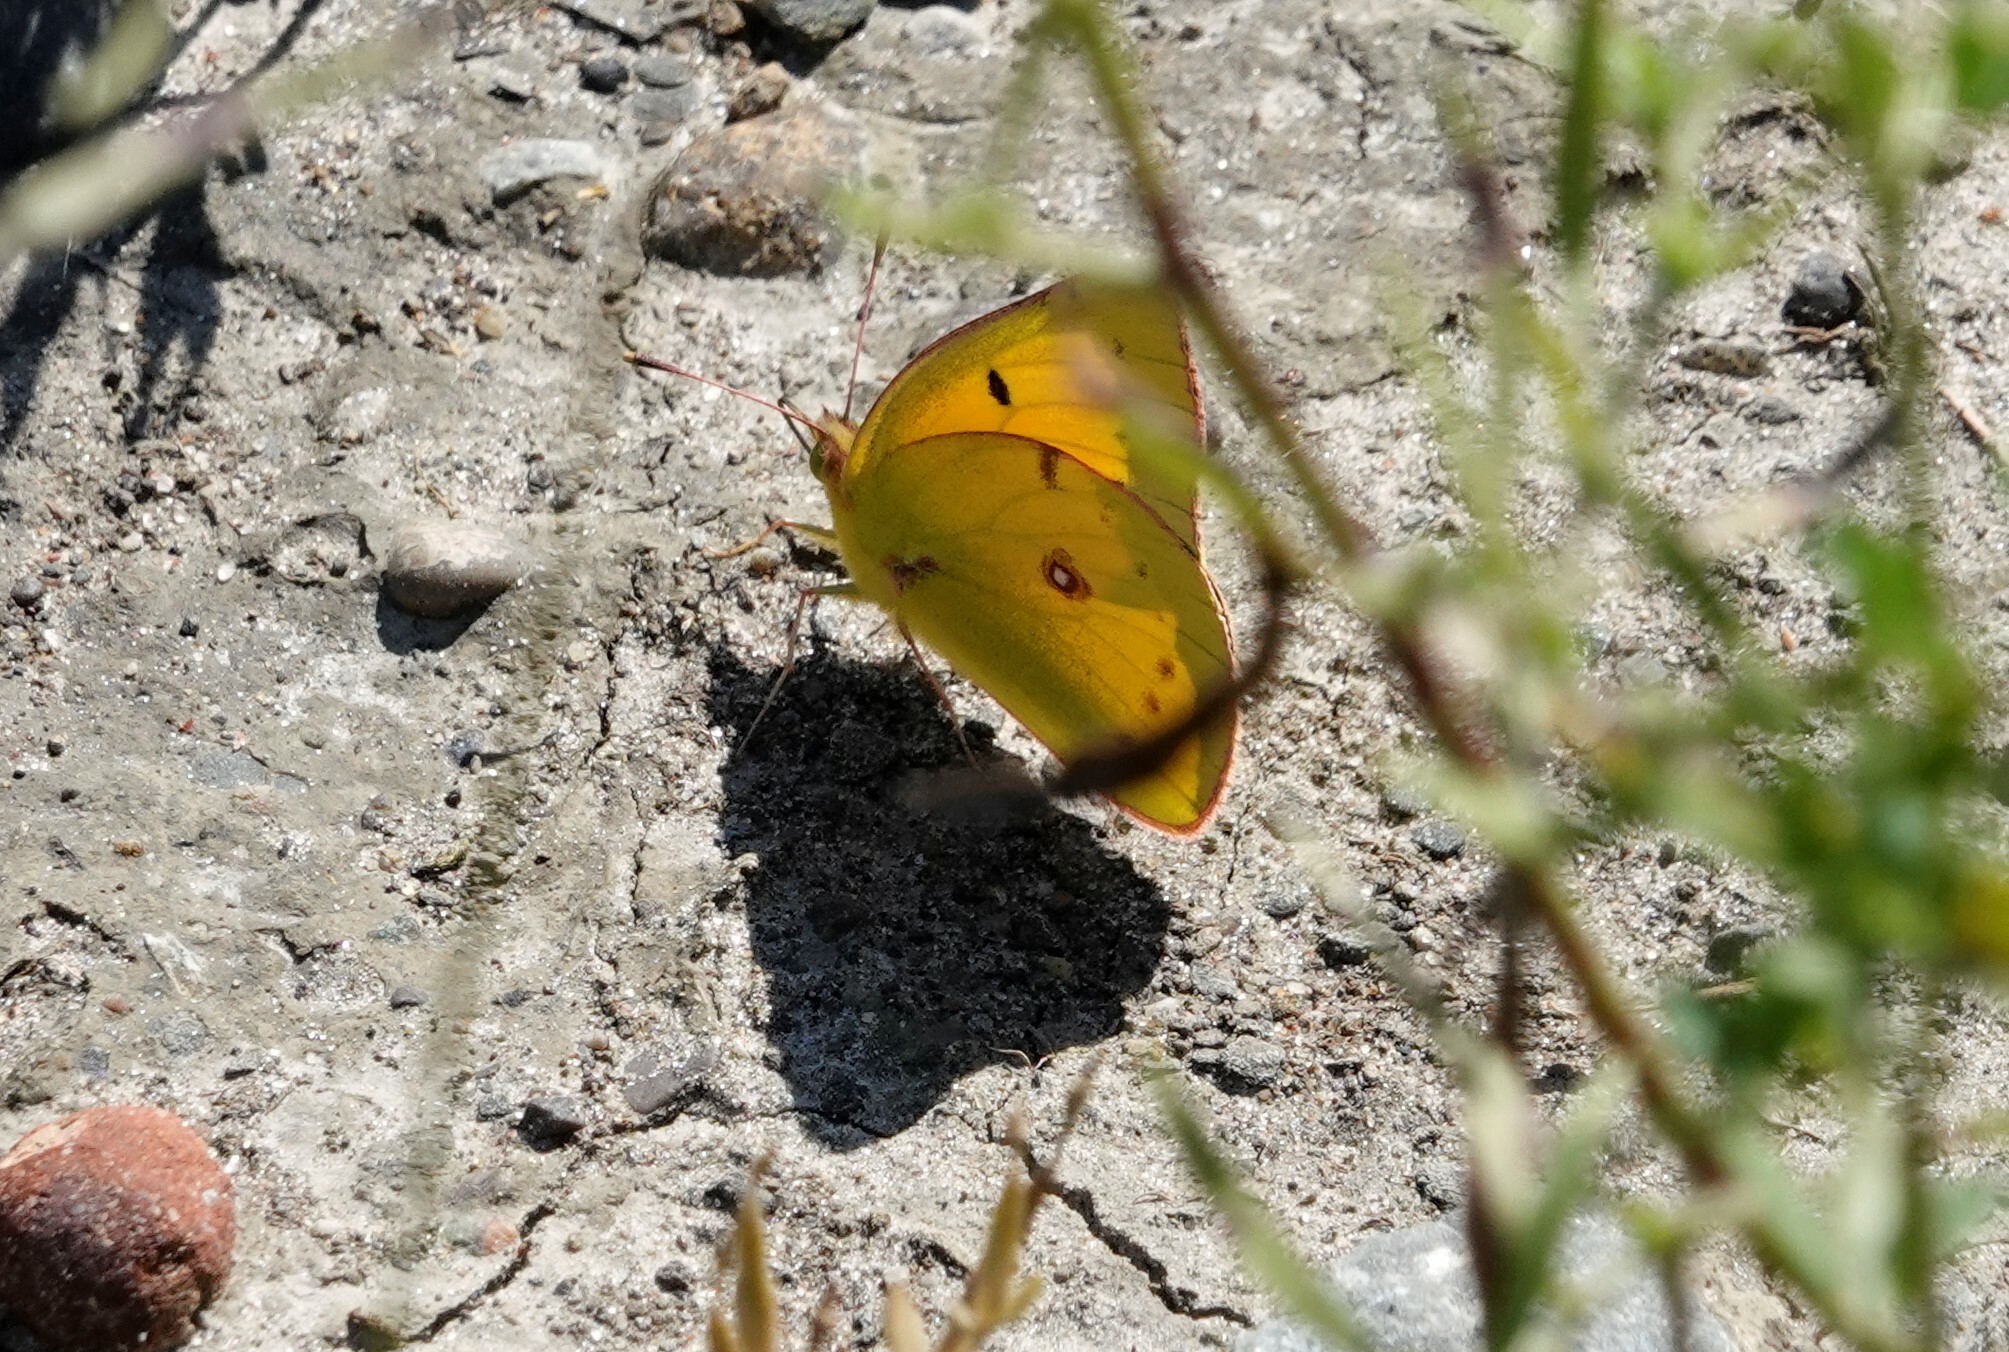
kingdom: Animalia
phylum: Arthropoda
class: Insecta
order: Lepidoptera
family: Pieridae
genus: Colias
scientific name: Colias eurytheme
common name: Alfalfa butterfly
